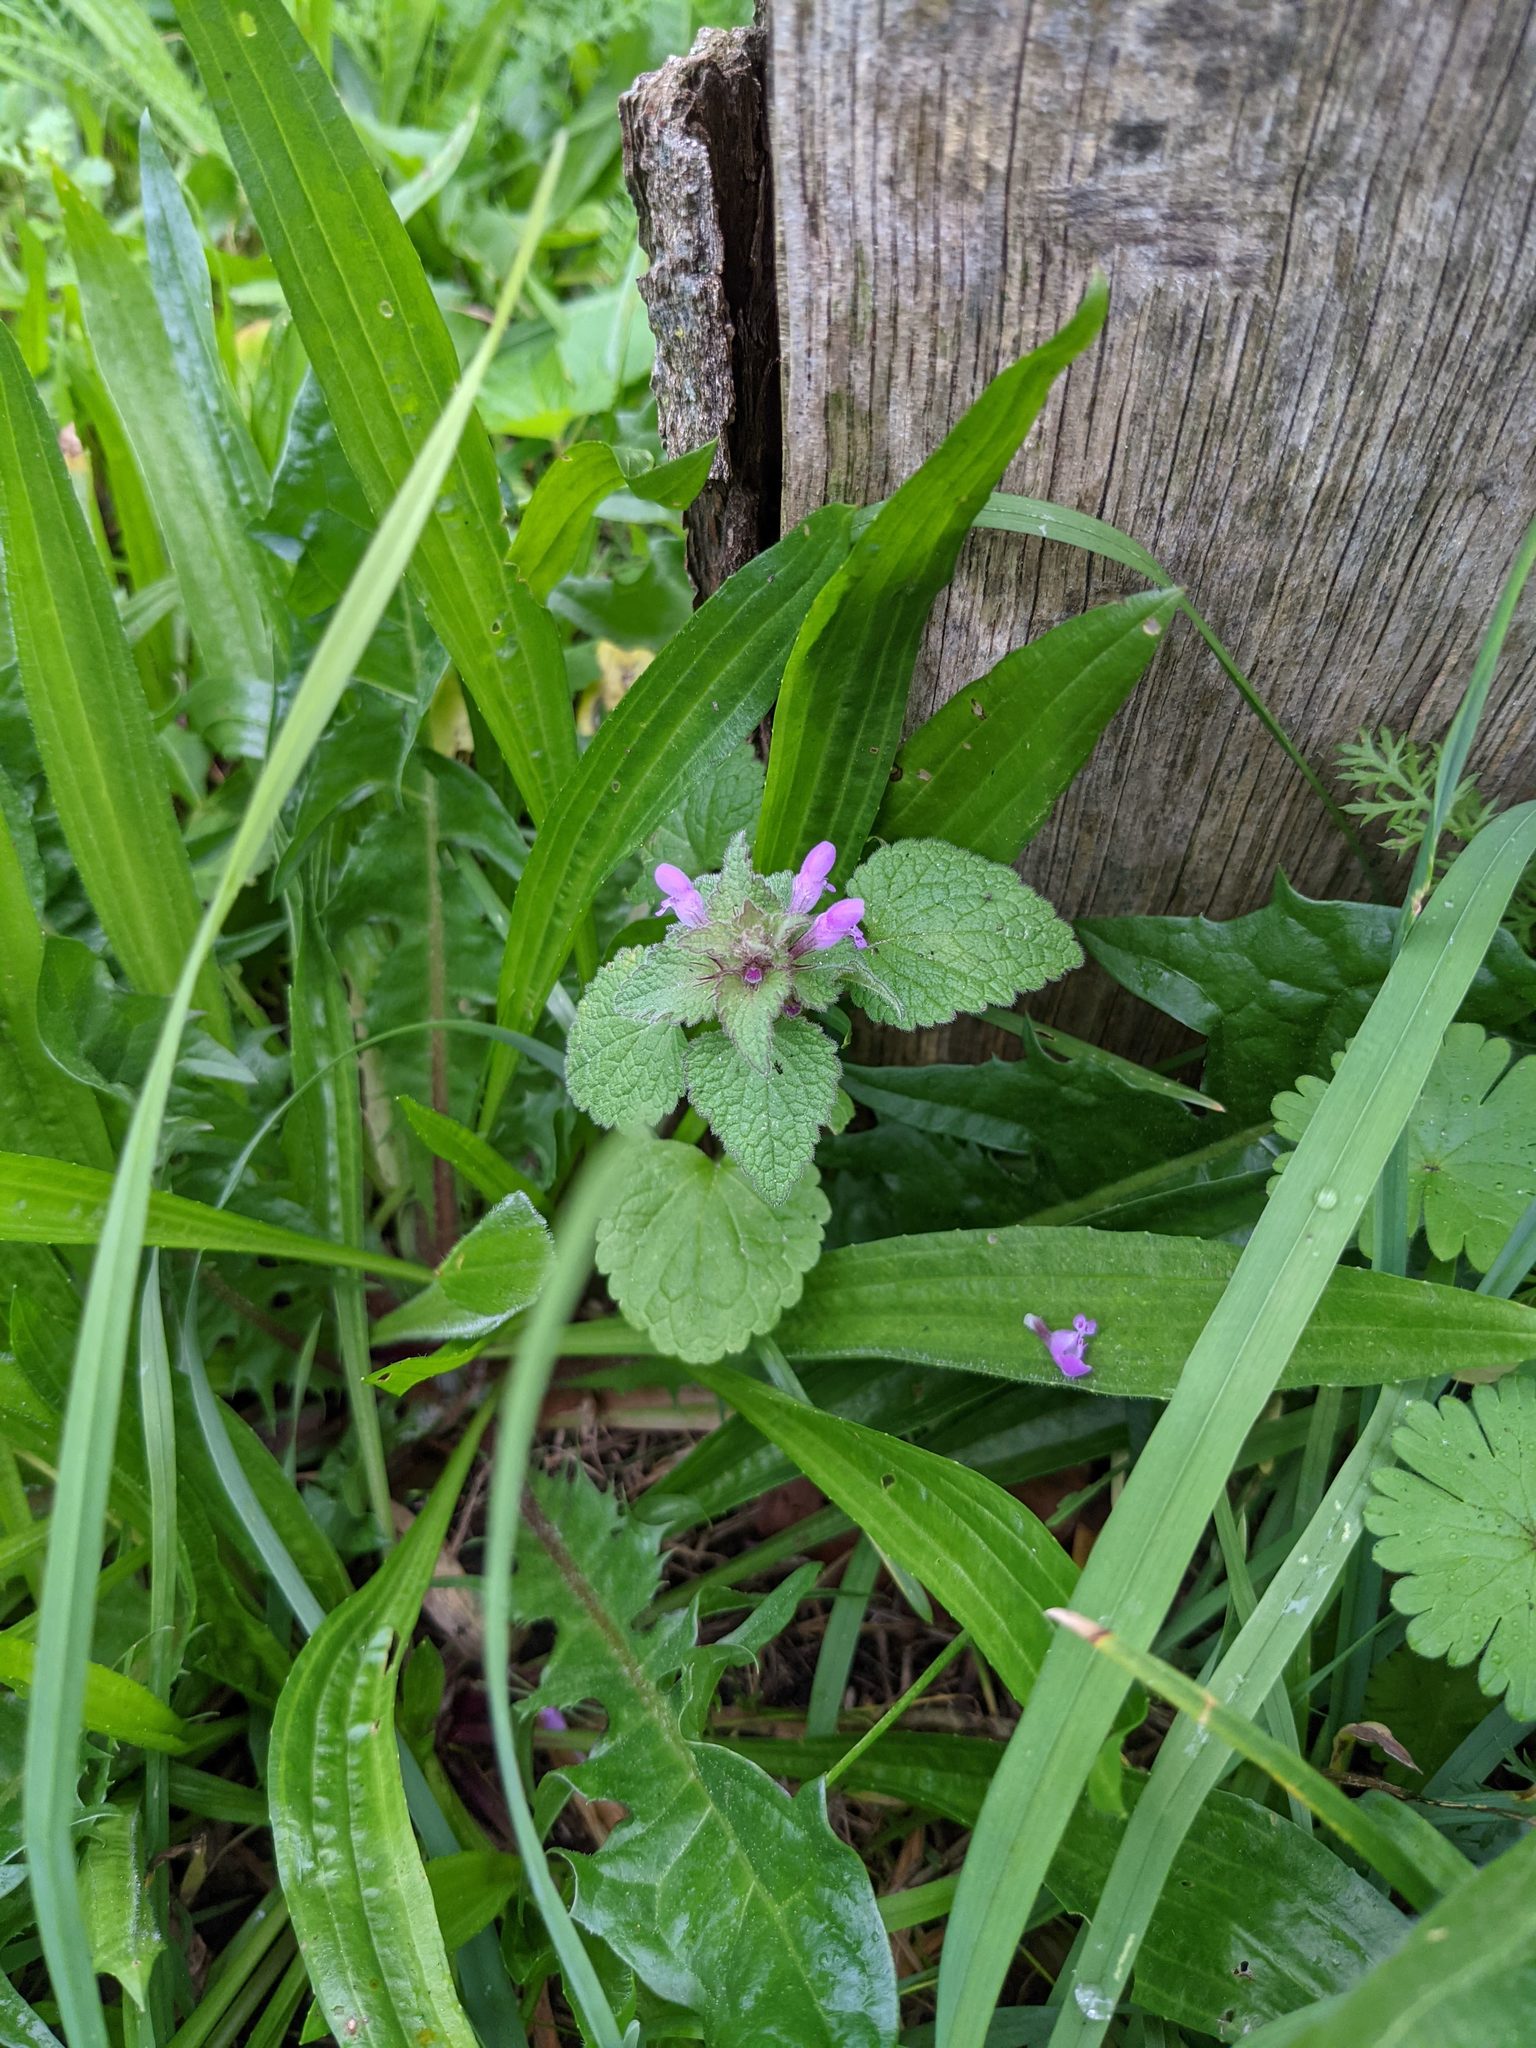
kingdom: Plantae
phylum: Tracheophyta
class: Magnoliopsida
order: Lamiales
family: Lamiaceae
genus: Lamium
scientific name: Lamium purpureum
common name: Red dead-nettle
